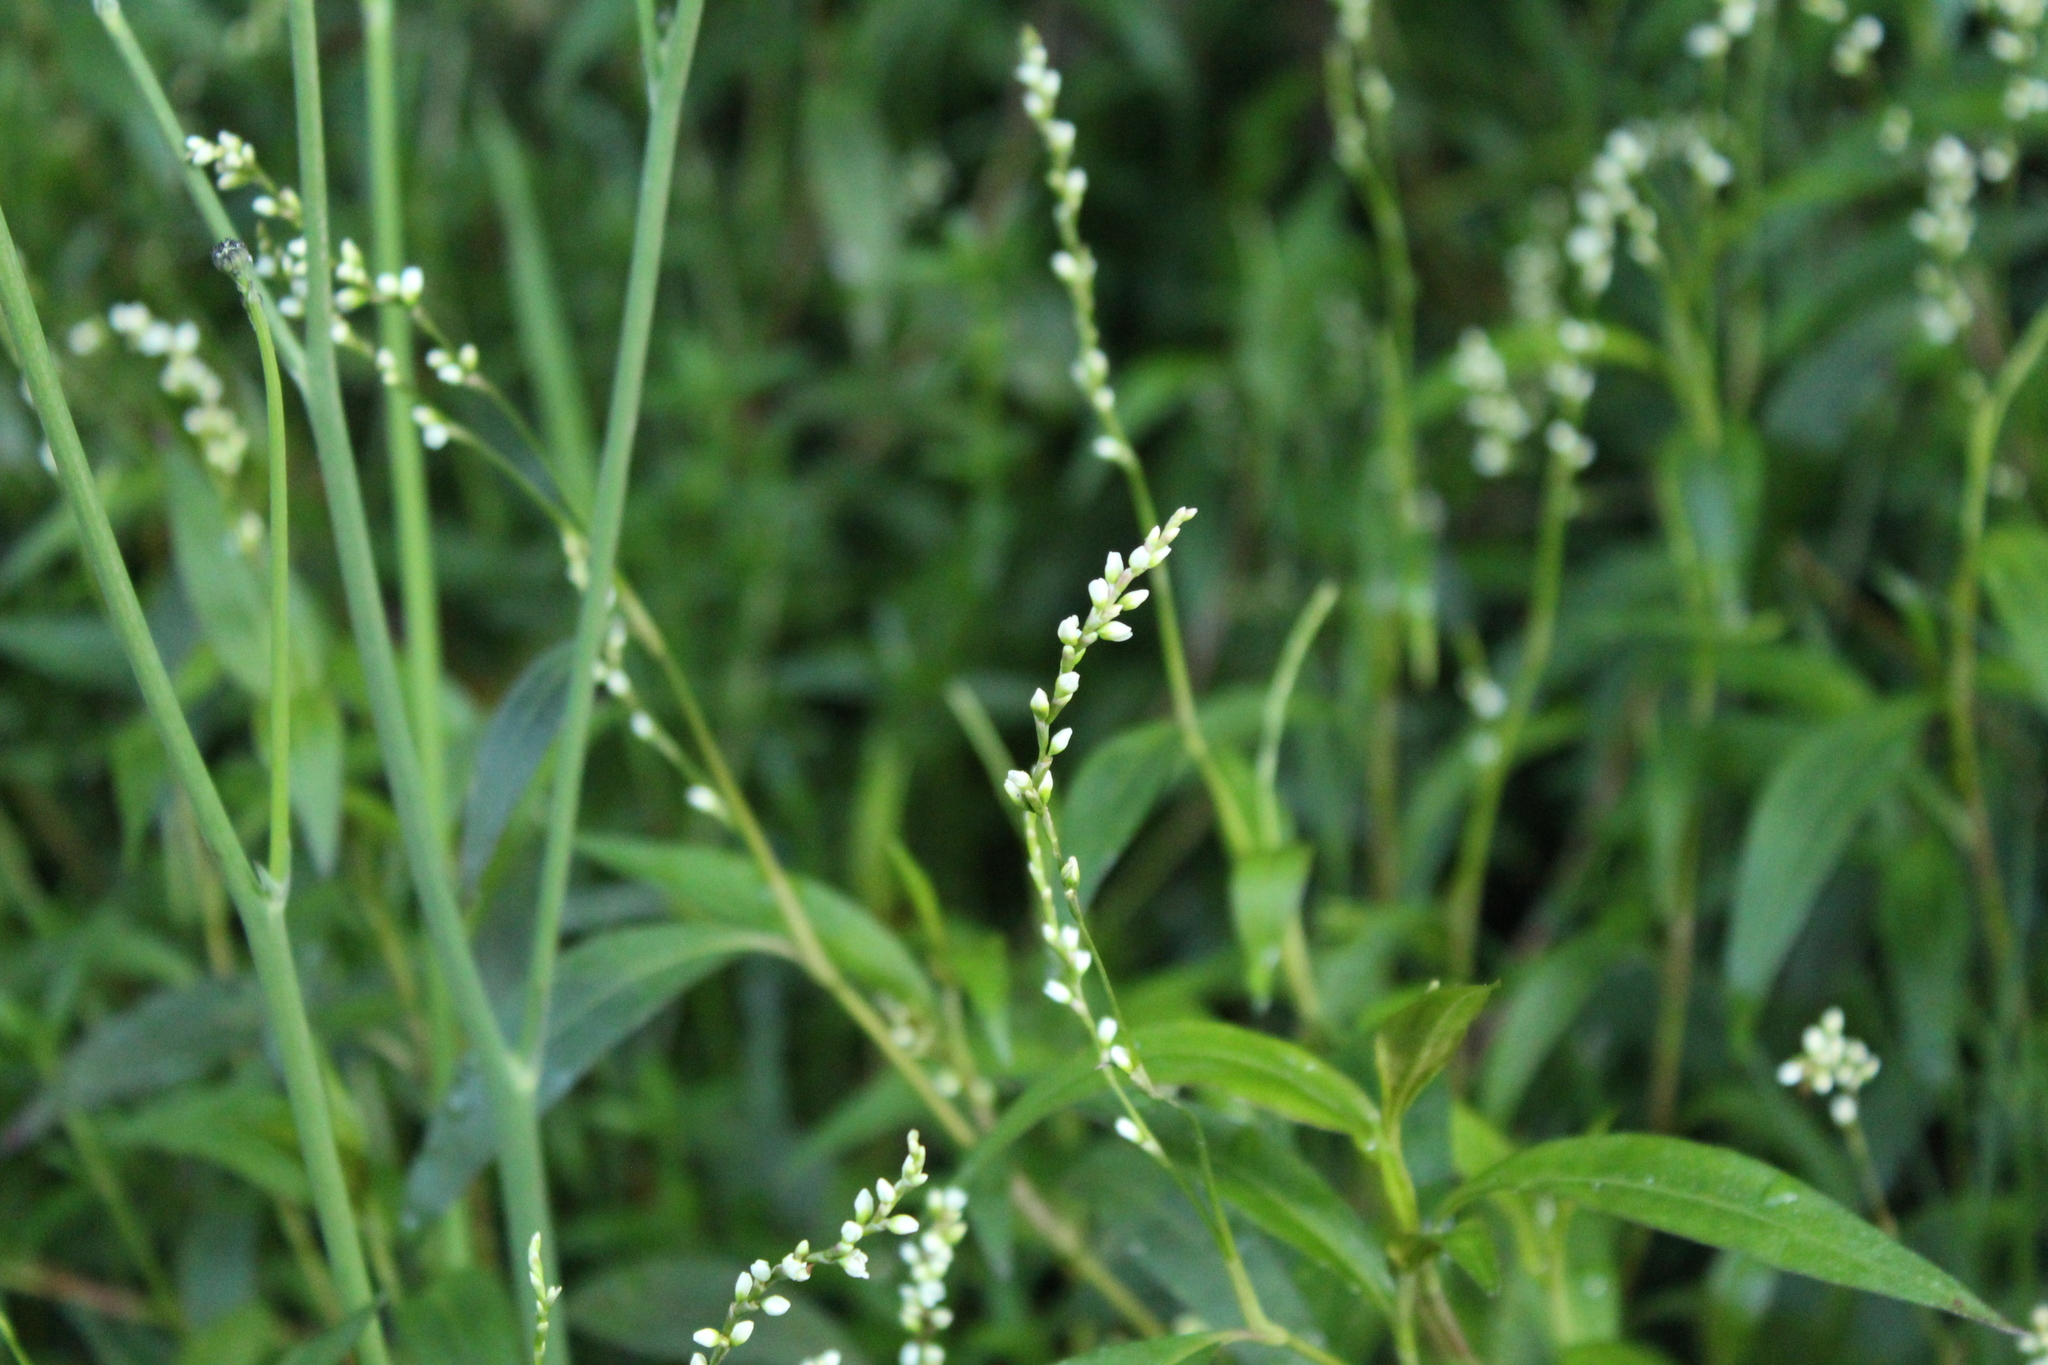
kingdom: Plantae
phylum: Tracheophyta
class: Magnoliopsida
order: Caryophyllales
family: Polygonaceae
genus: Persicaria
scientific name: Persicaria punctata
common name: Dotted smartweed
